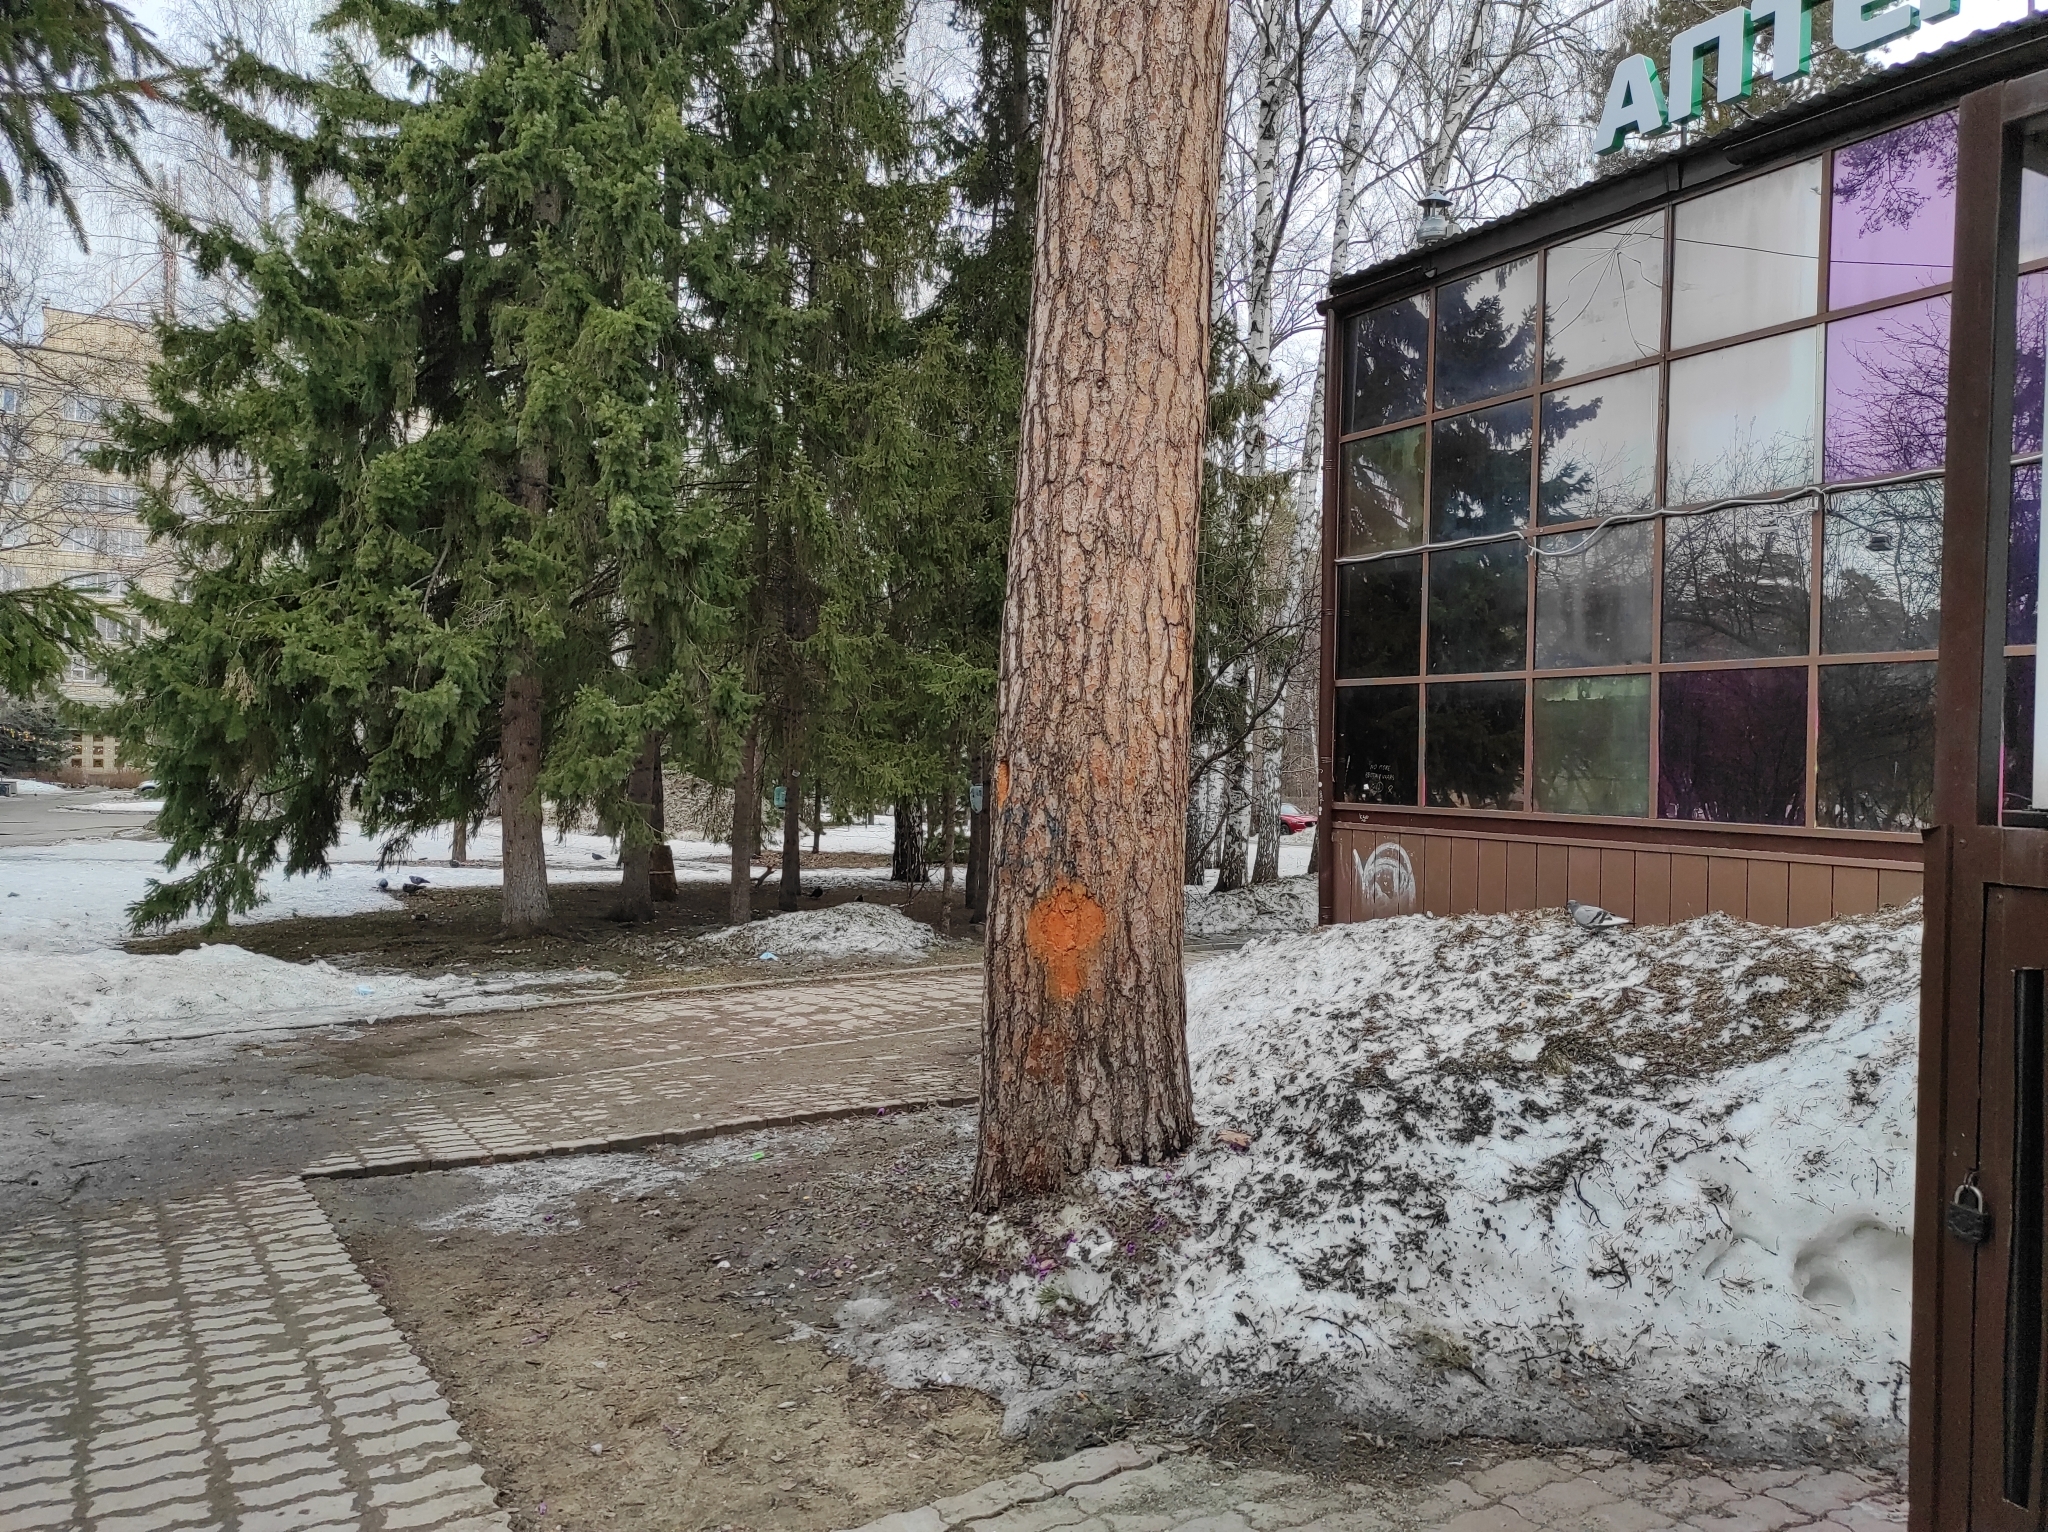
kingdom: Plantae
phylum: Tracheophyta
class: Pinopsida
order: Pinales
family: Pinaceae
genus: Pinus
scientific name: Pinus sylvestris
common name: Scots pine
